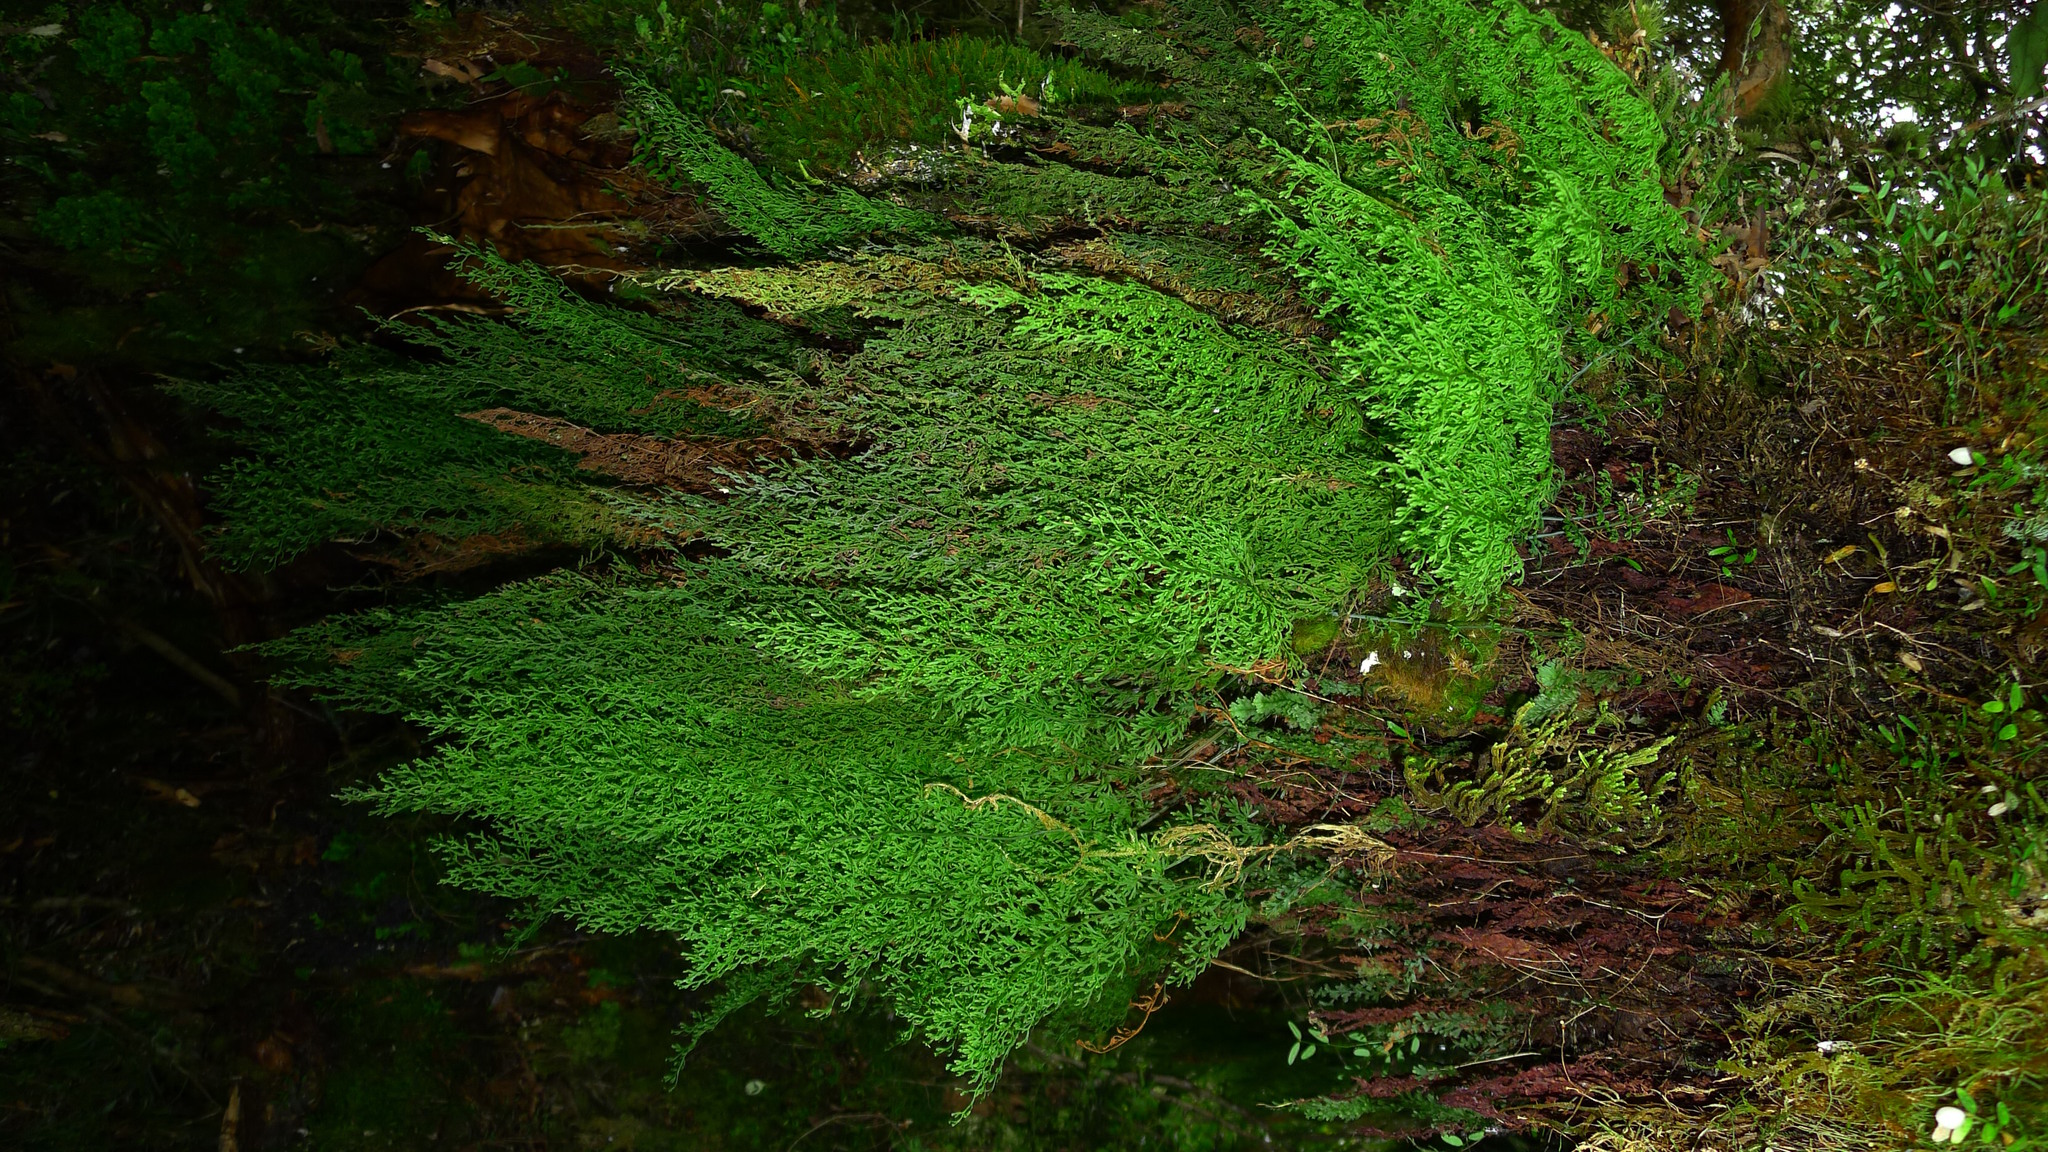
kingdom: Plantae
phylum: Tracheophyta
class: Polypodiopsida
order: Hymenophyllales
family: Hymenophyllaceae
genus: Hymenophyllum
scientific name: Hymenophyllum pulcherrimum
